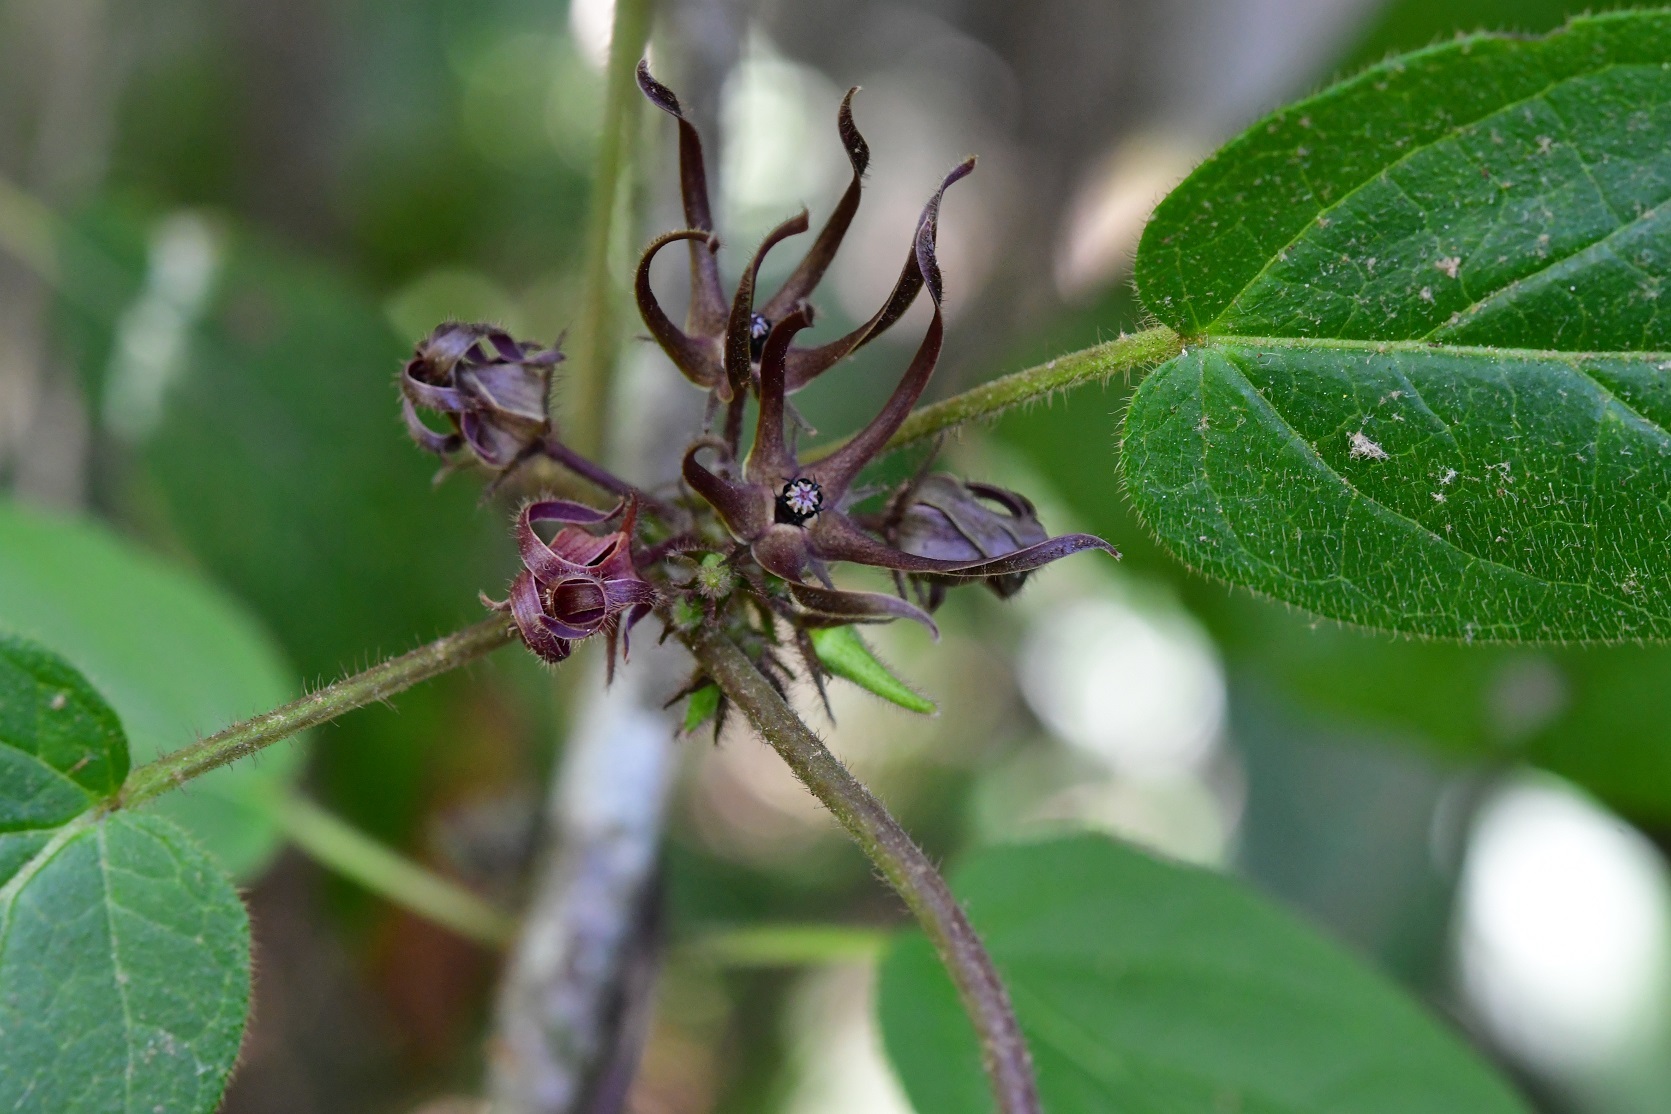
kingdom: Plantae
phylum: Tracheophyta
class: Magnoliopsida
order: Gentianales
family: Apocynaceae
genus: Matelea
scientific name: Matelea medusae
